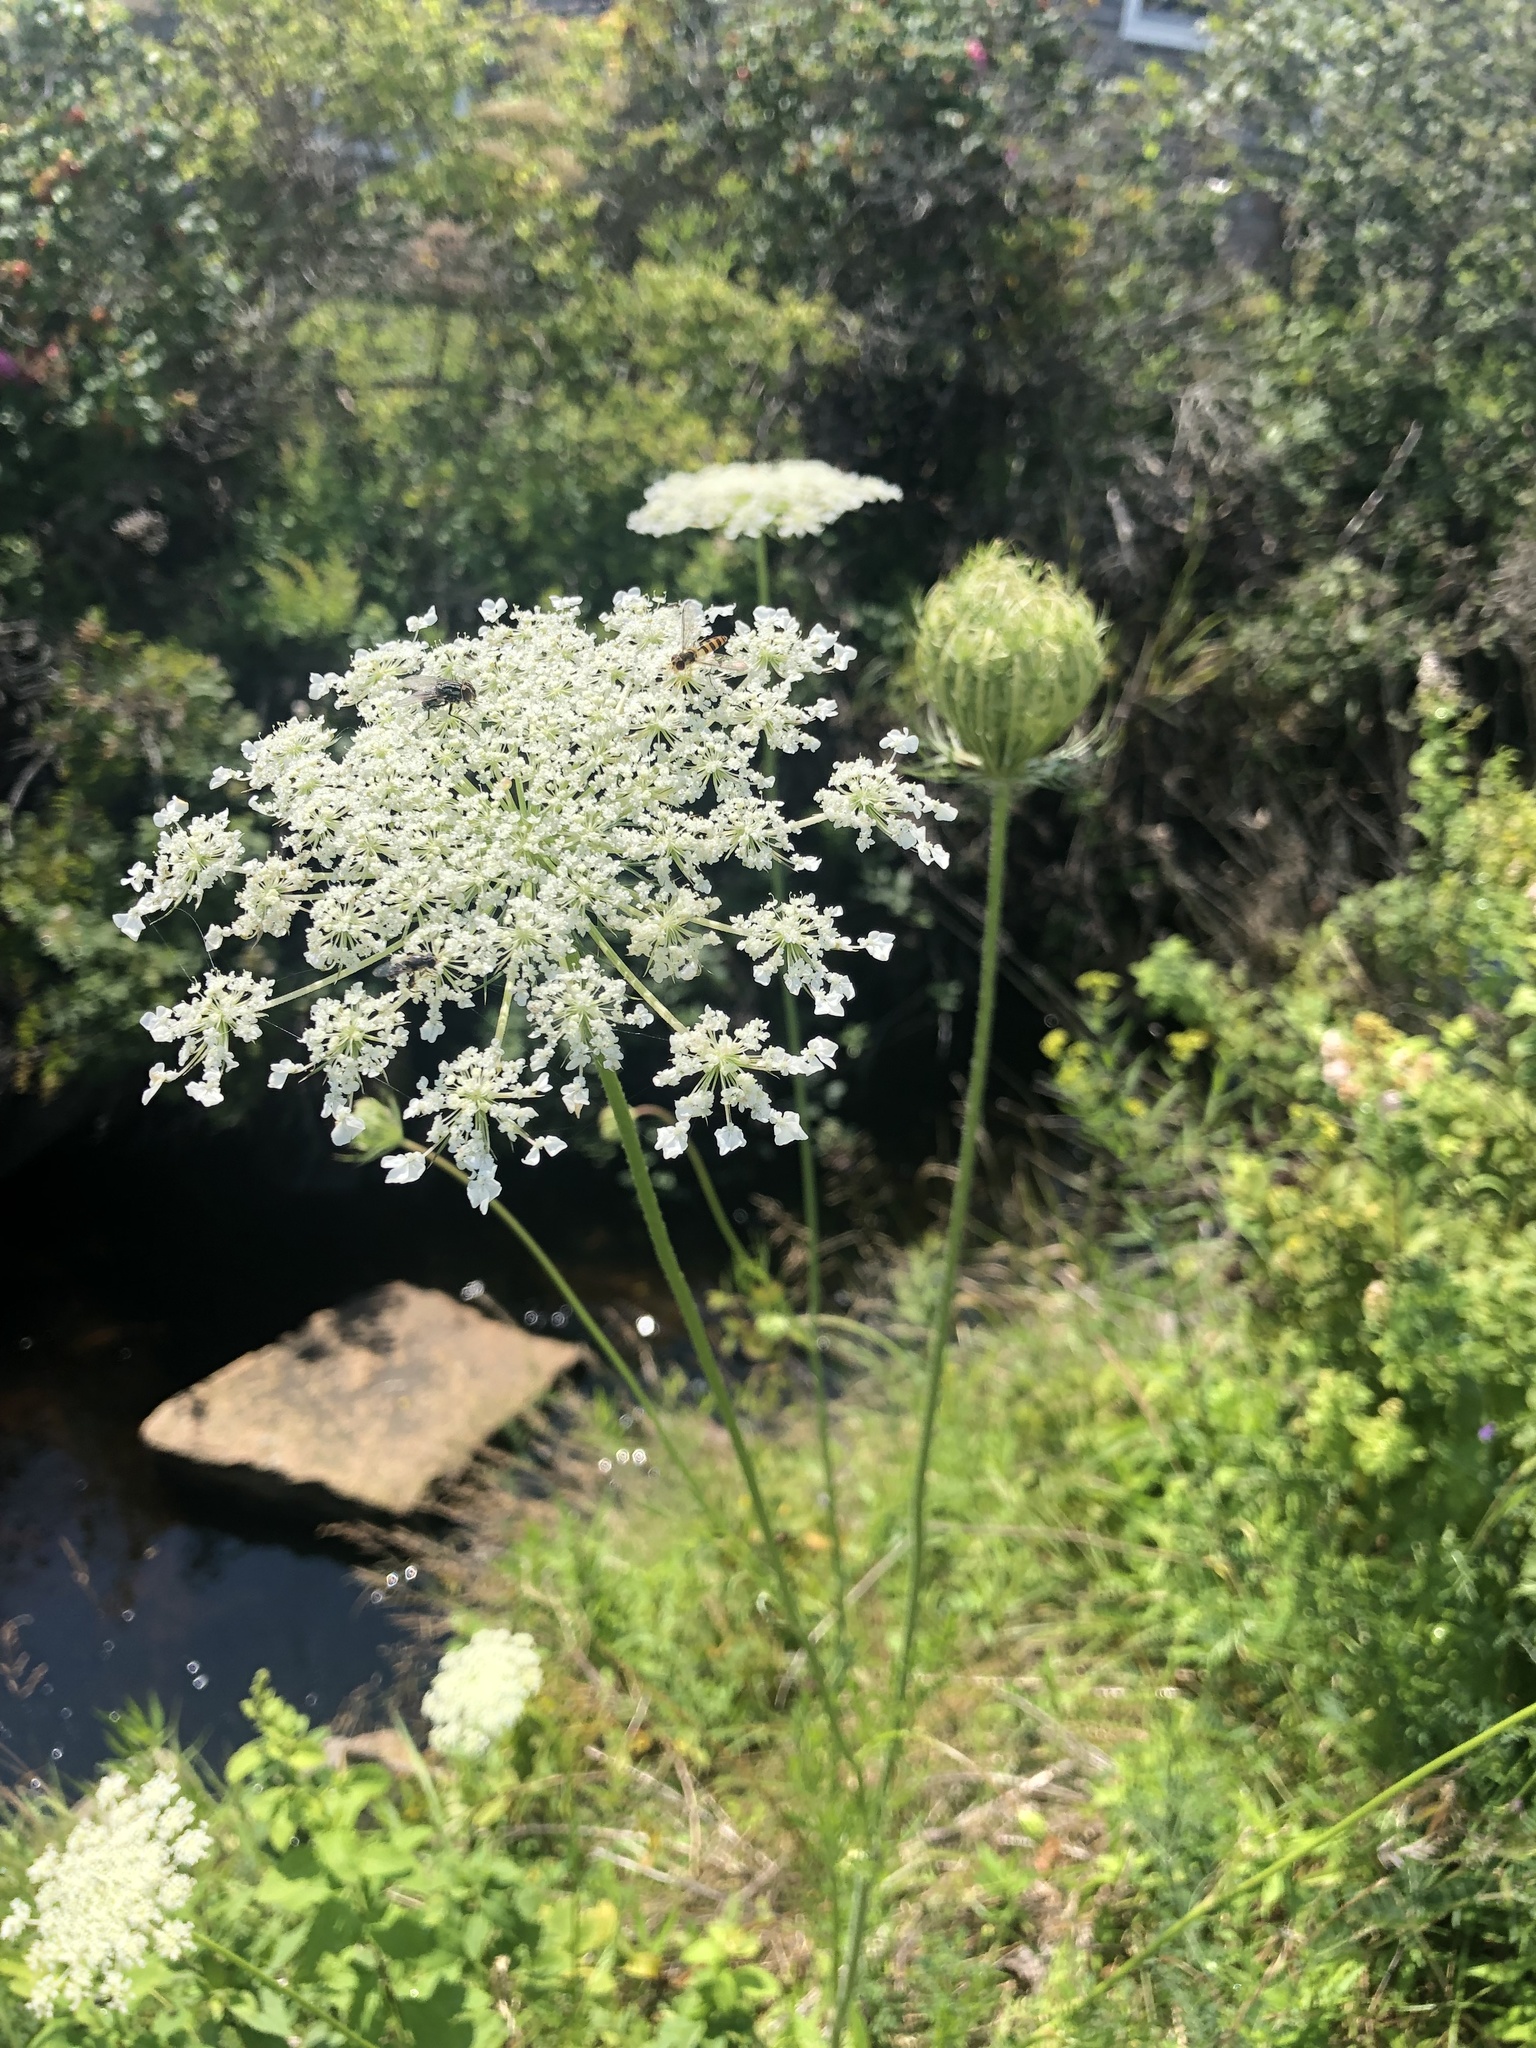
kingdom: Plantae
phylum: Tracheophyta
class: Magnoliopsida
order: Apiales
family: Apiaceae
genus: Daucus
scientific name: Daucus carota
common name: Wild carrot
